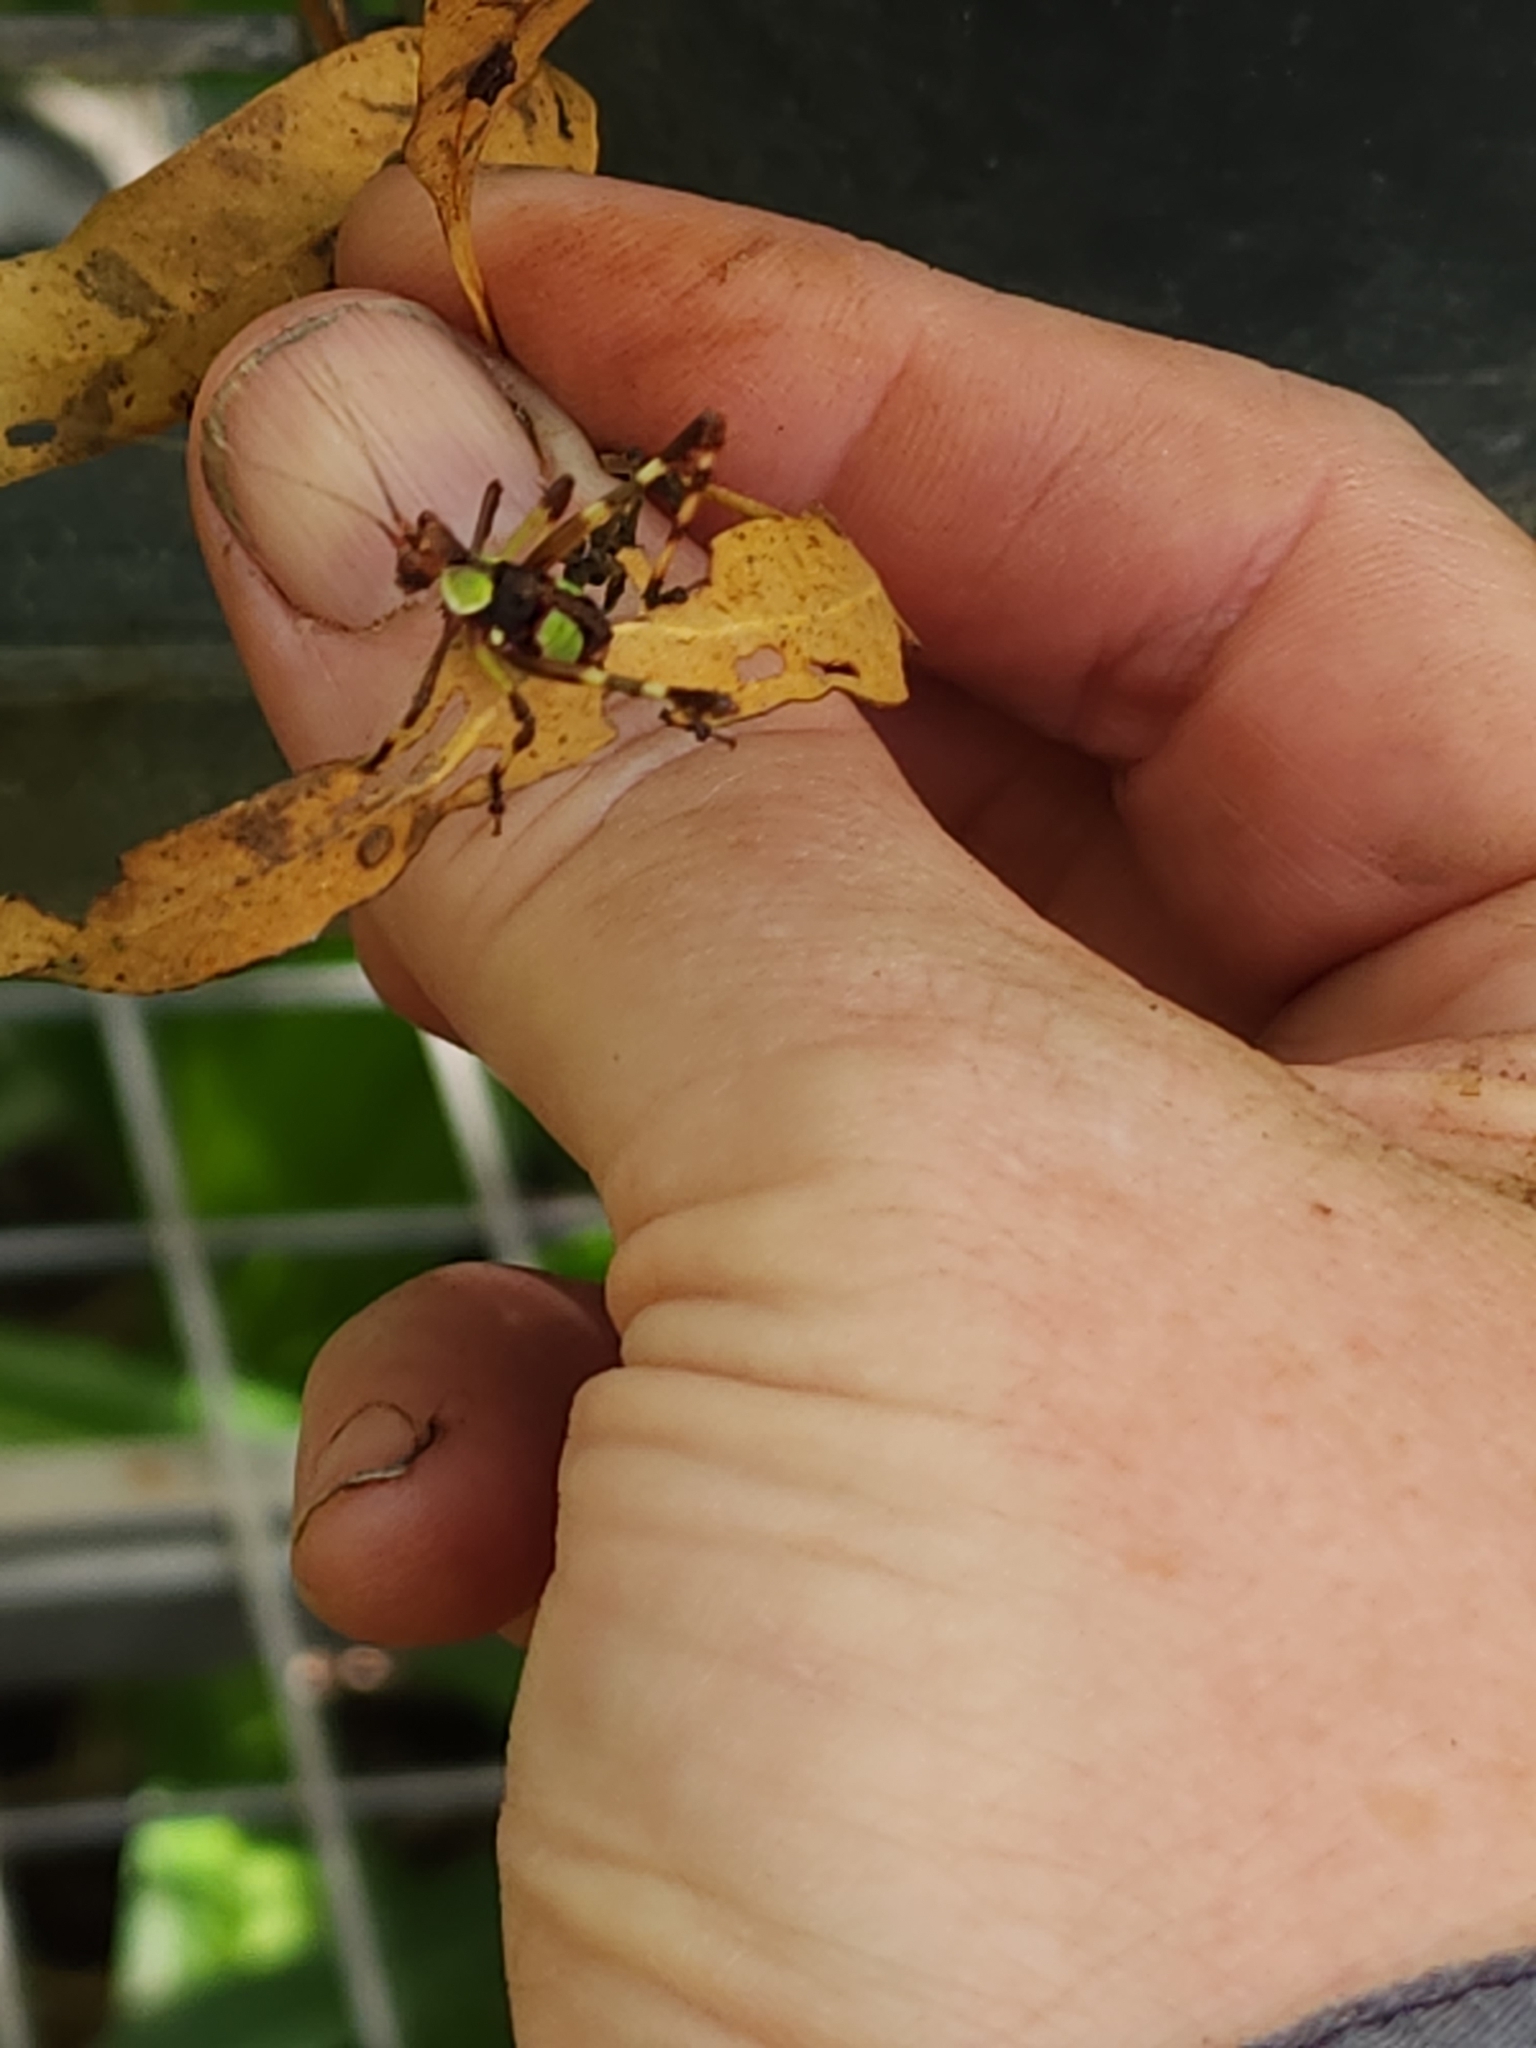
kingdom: Animalia
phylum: Arthropoda
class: Insecta
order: Orthoptera
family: Tettigoniidae
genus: Ephippitytha
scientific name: Ephippitytha trigintiduoguttata
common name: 32-spotted katydid
